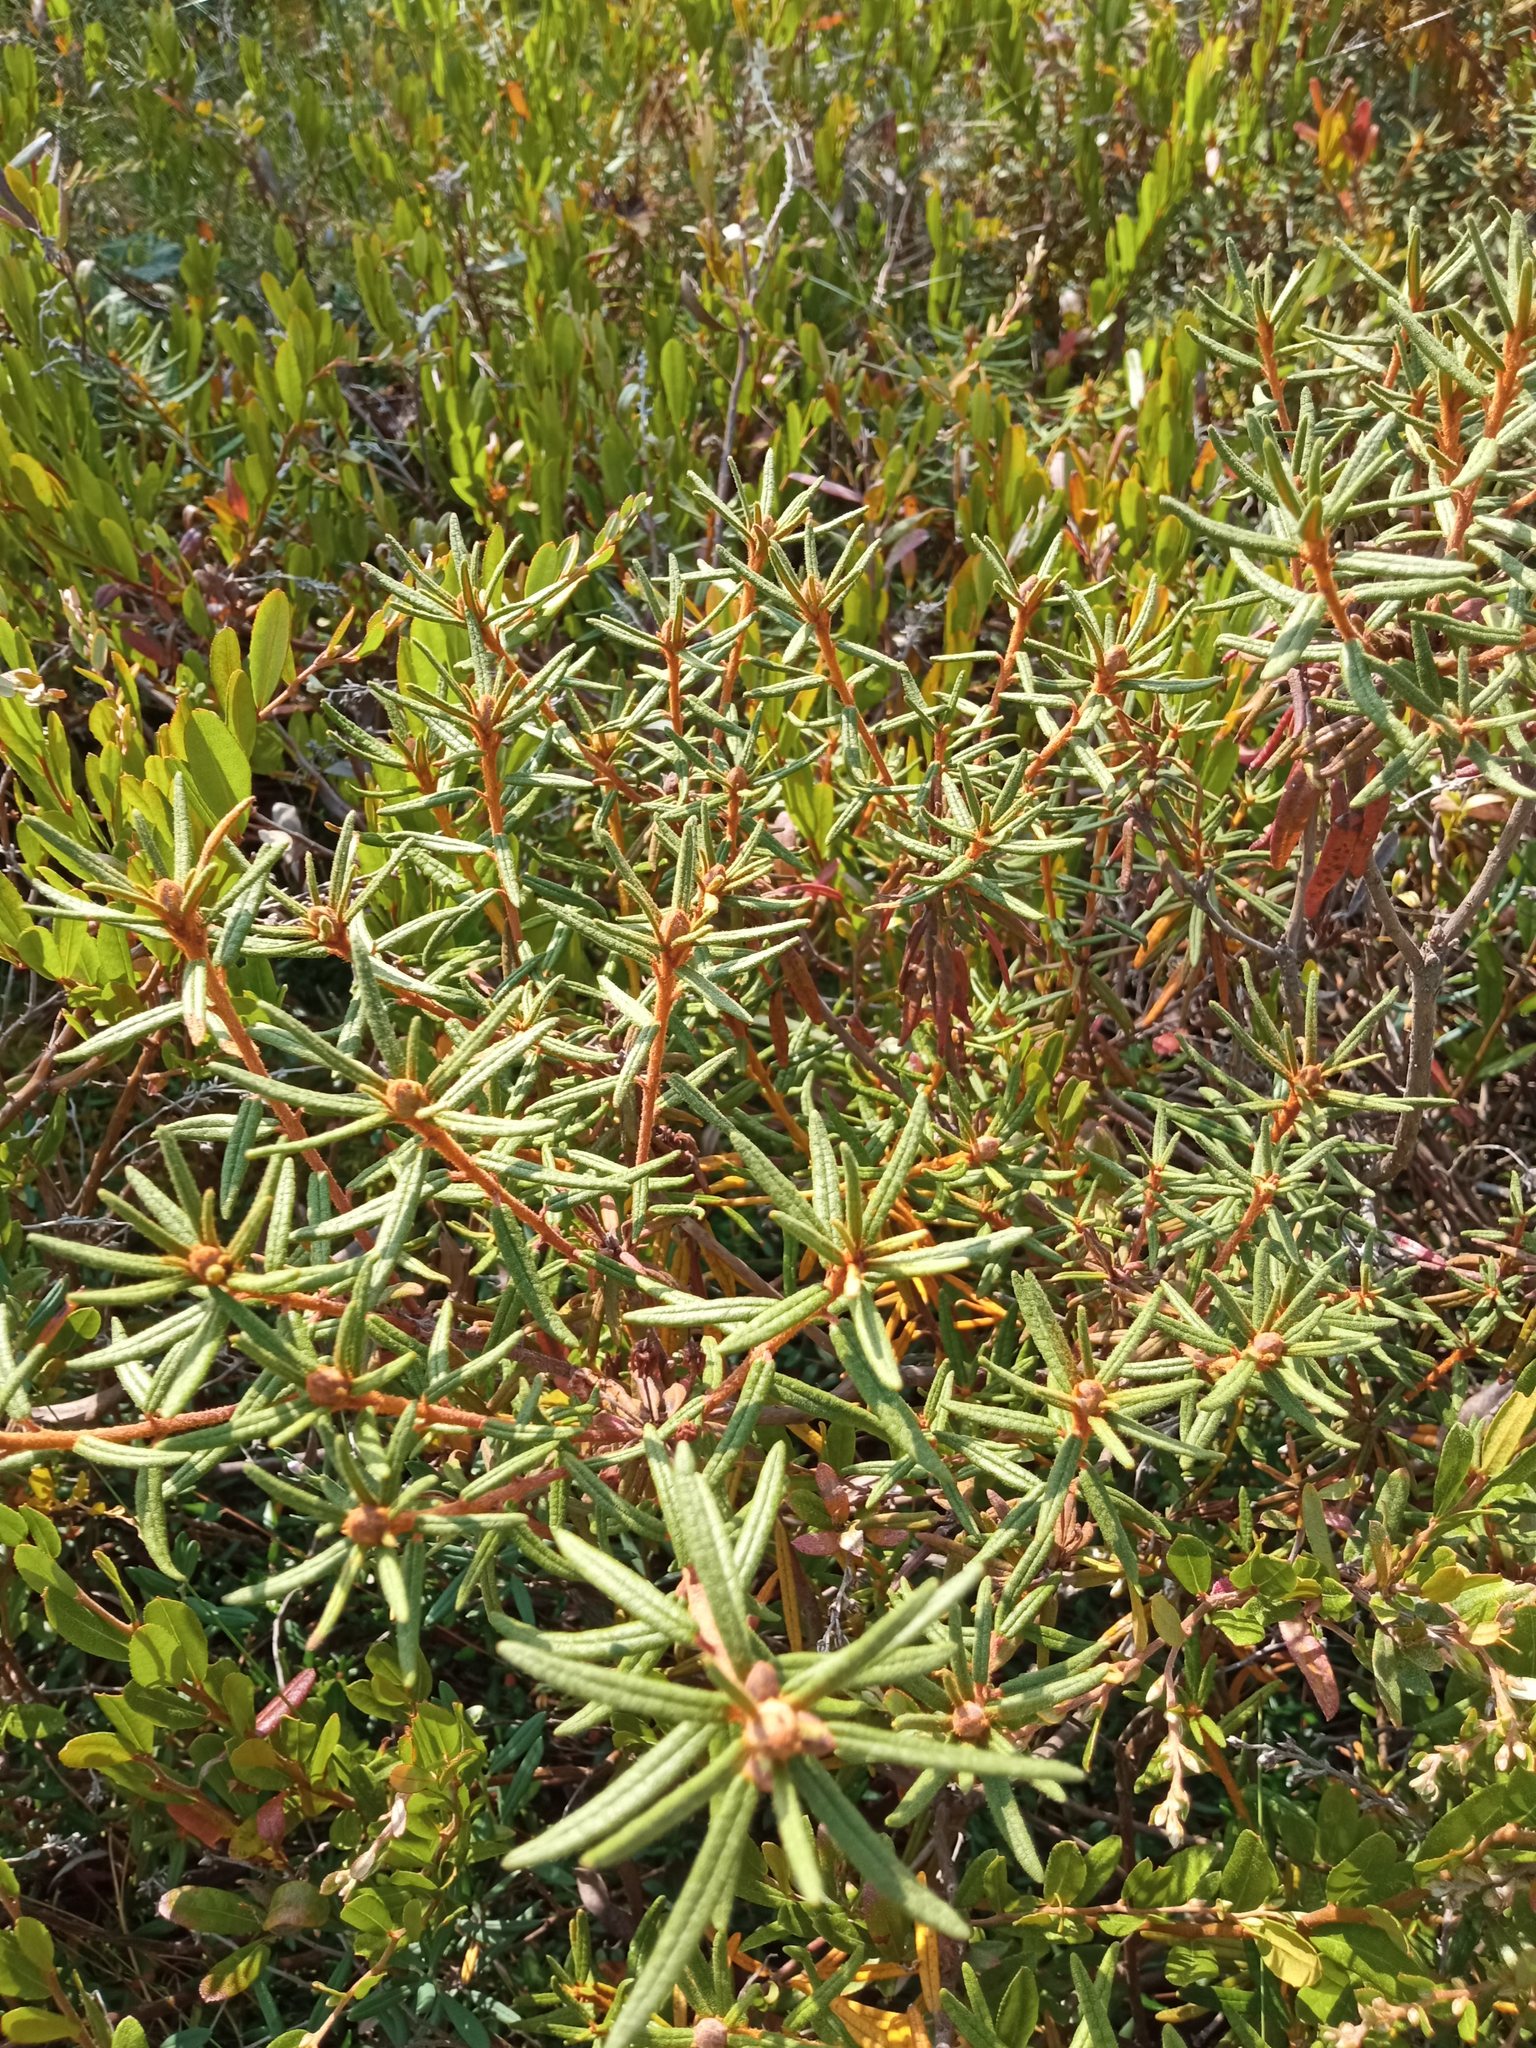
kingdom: Plantae
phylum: Tracheophyta
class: Magnoliopsida
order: Ericales
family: Ericaceae
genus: Rhododendron
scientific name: Rhododendron tomentosum
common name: Marsh labrador tea
